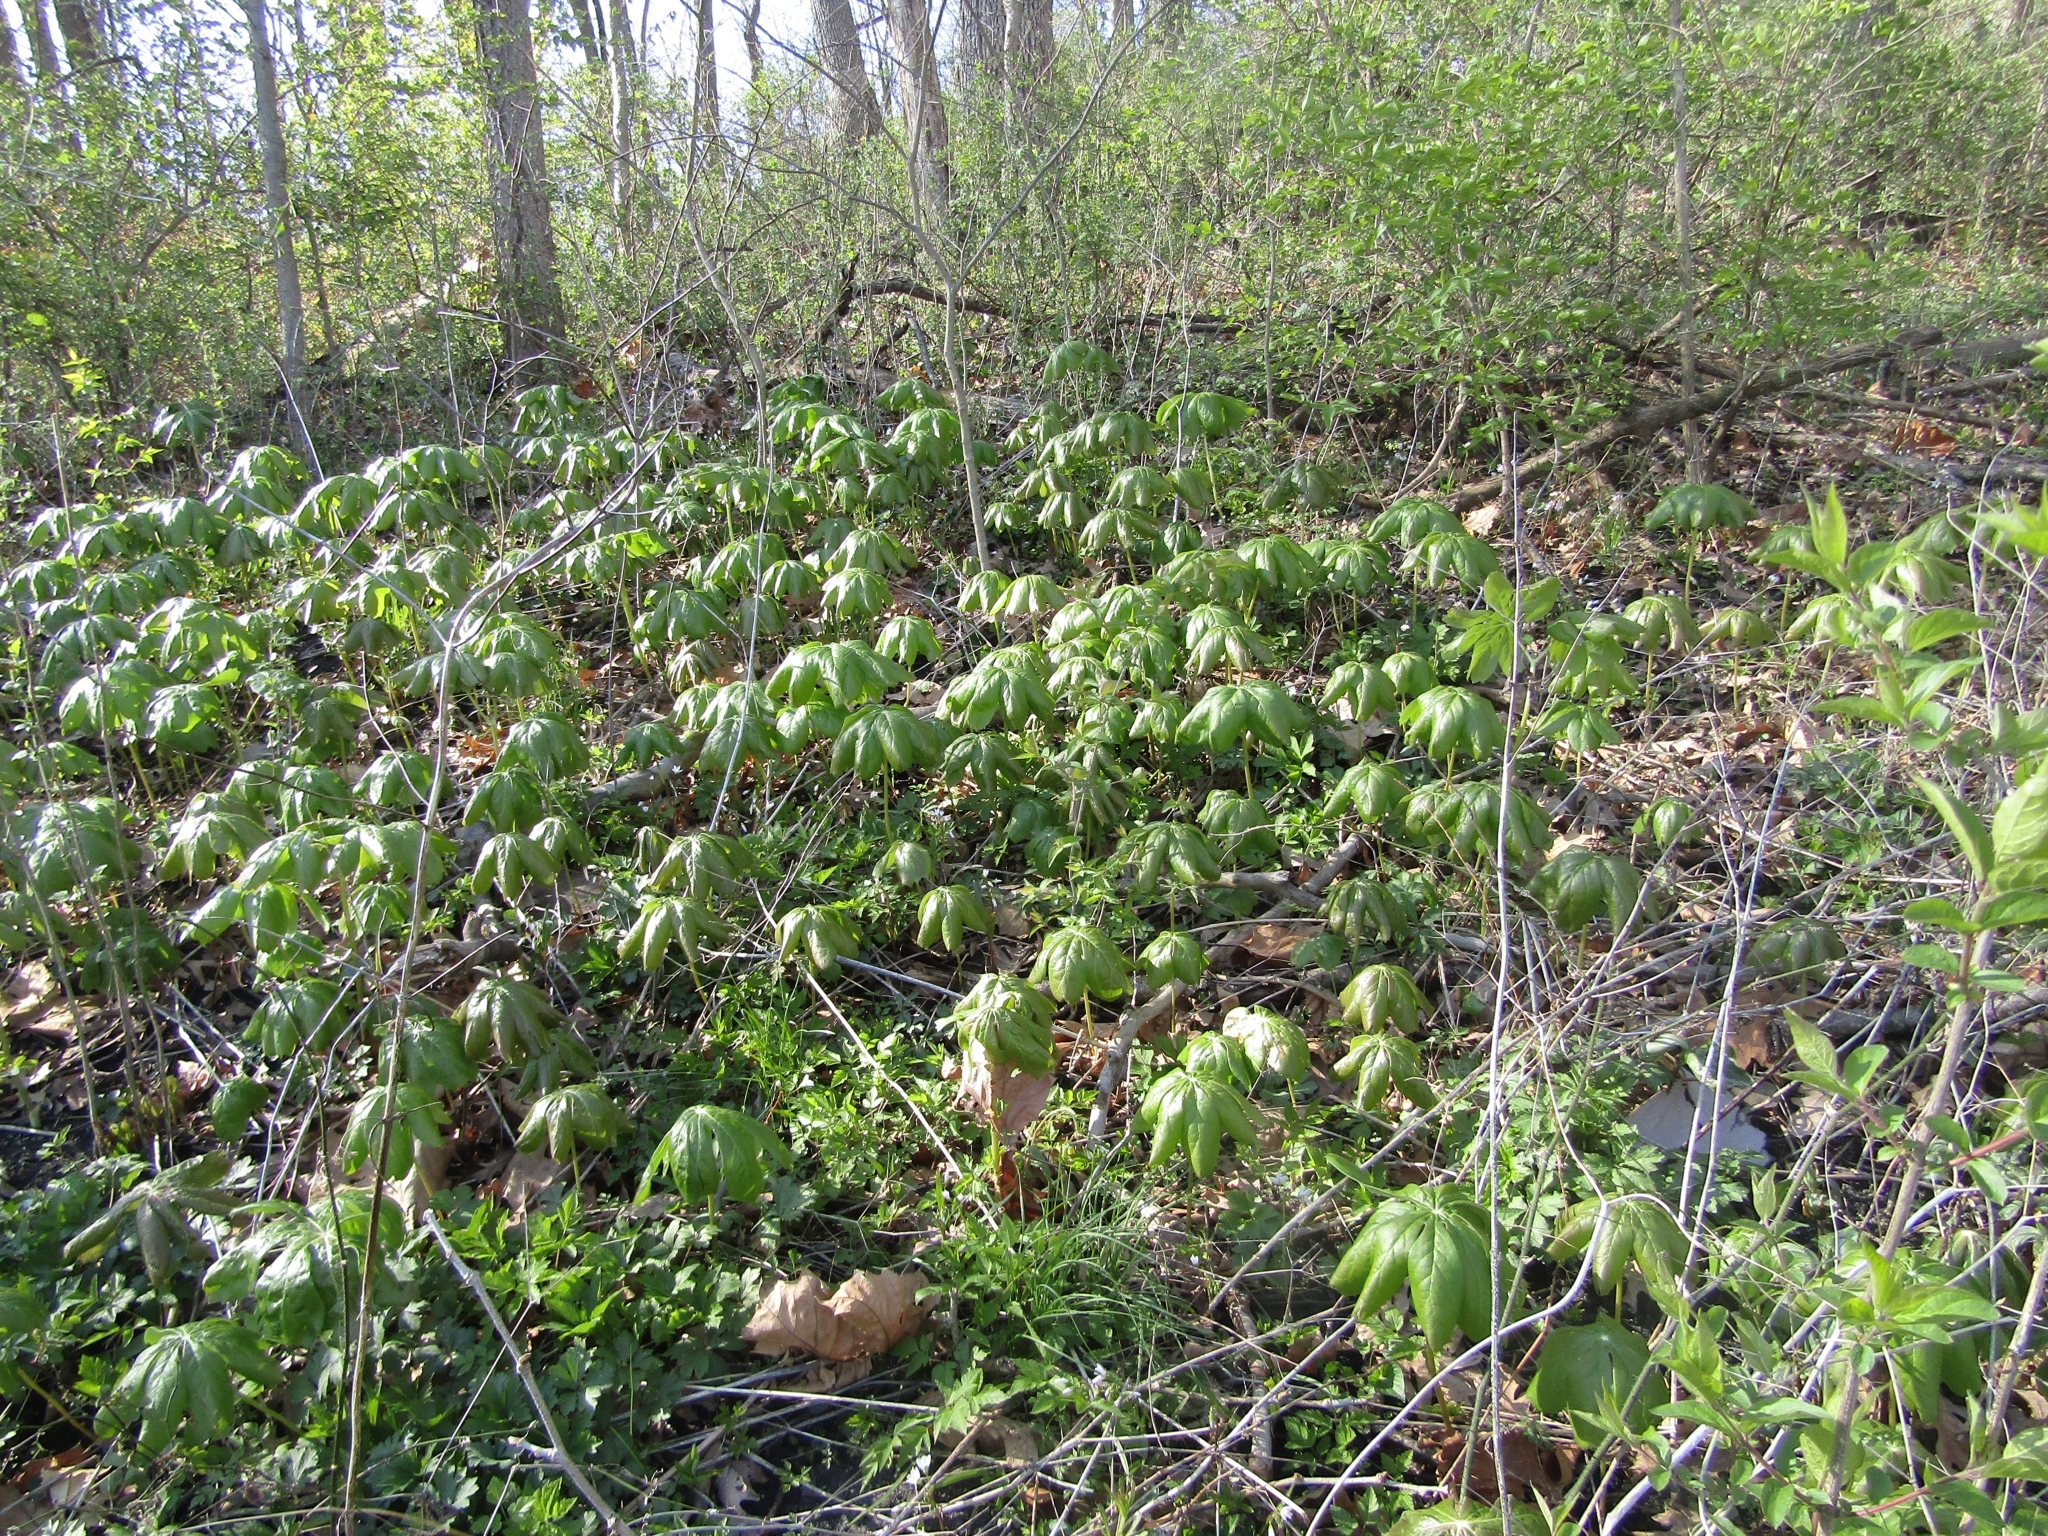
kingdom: Plantae
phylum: Tracheophyta
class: Magnoliopsida
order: Ranunculales
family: Berberidaceae
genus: Podophyllum
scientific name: Podophyllum peltatum
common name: Wild mandrake
